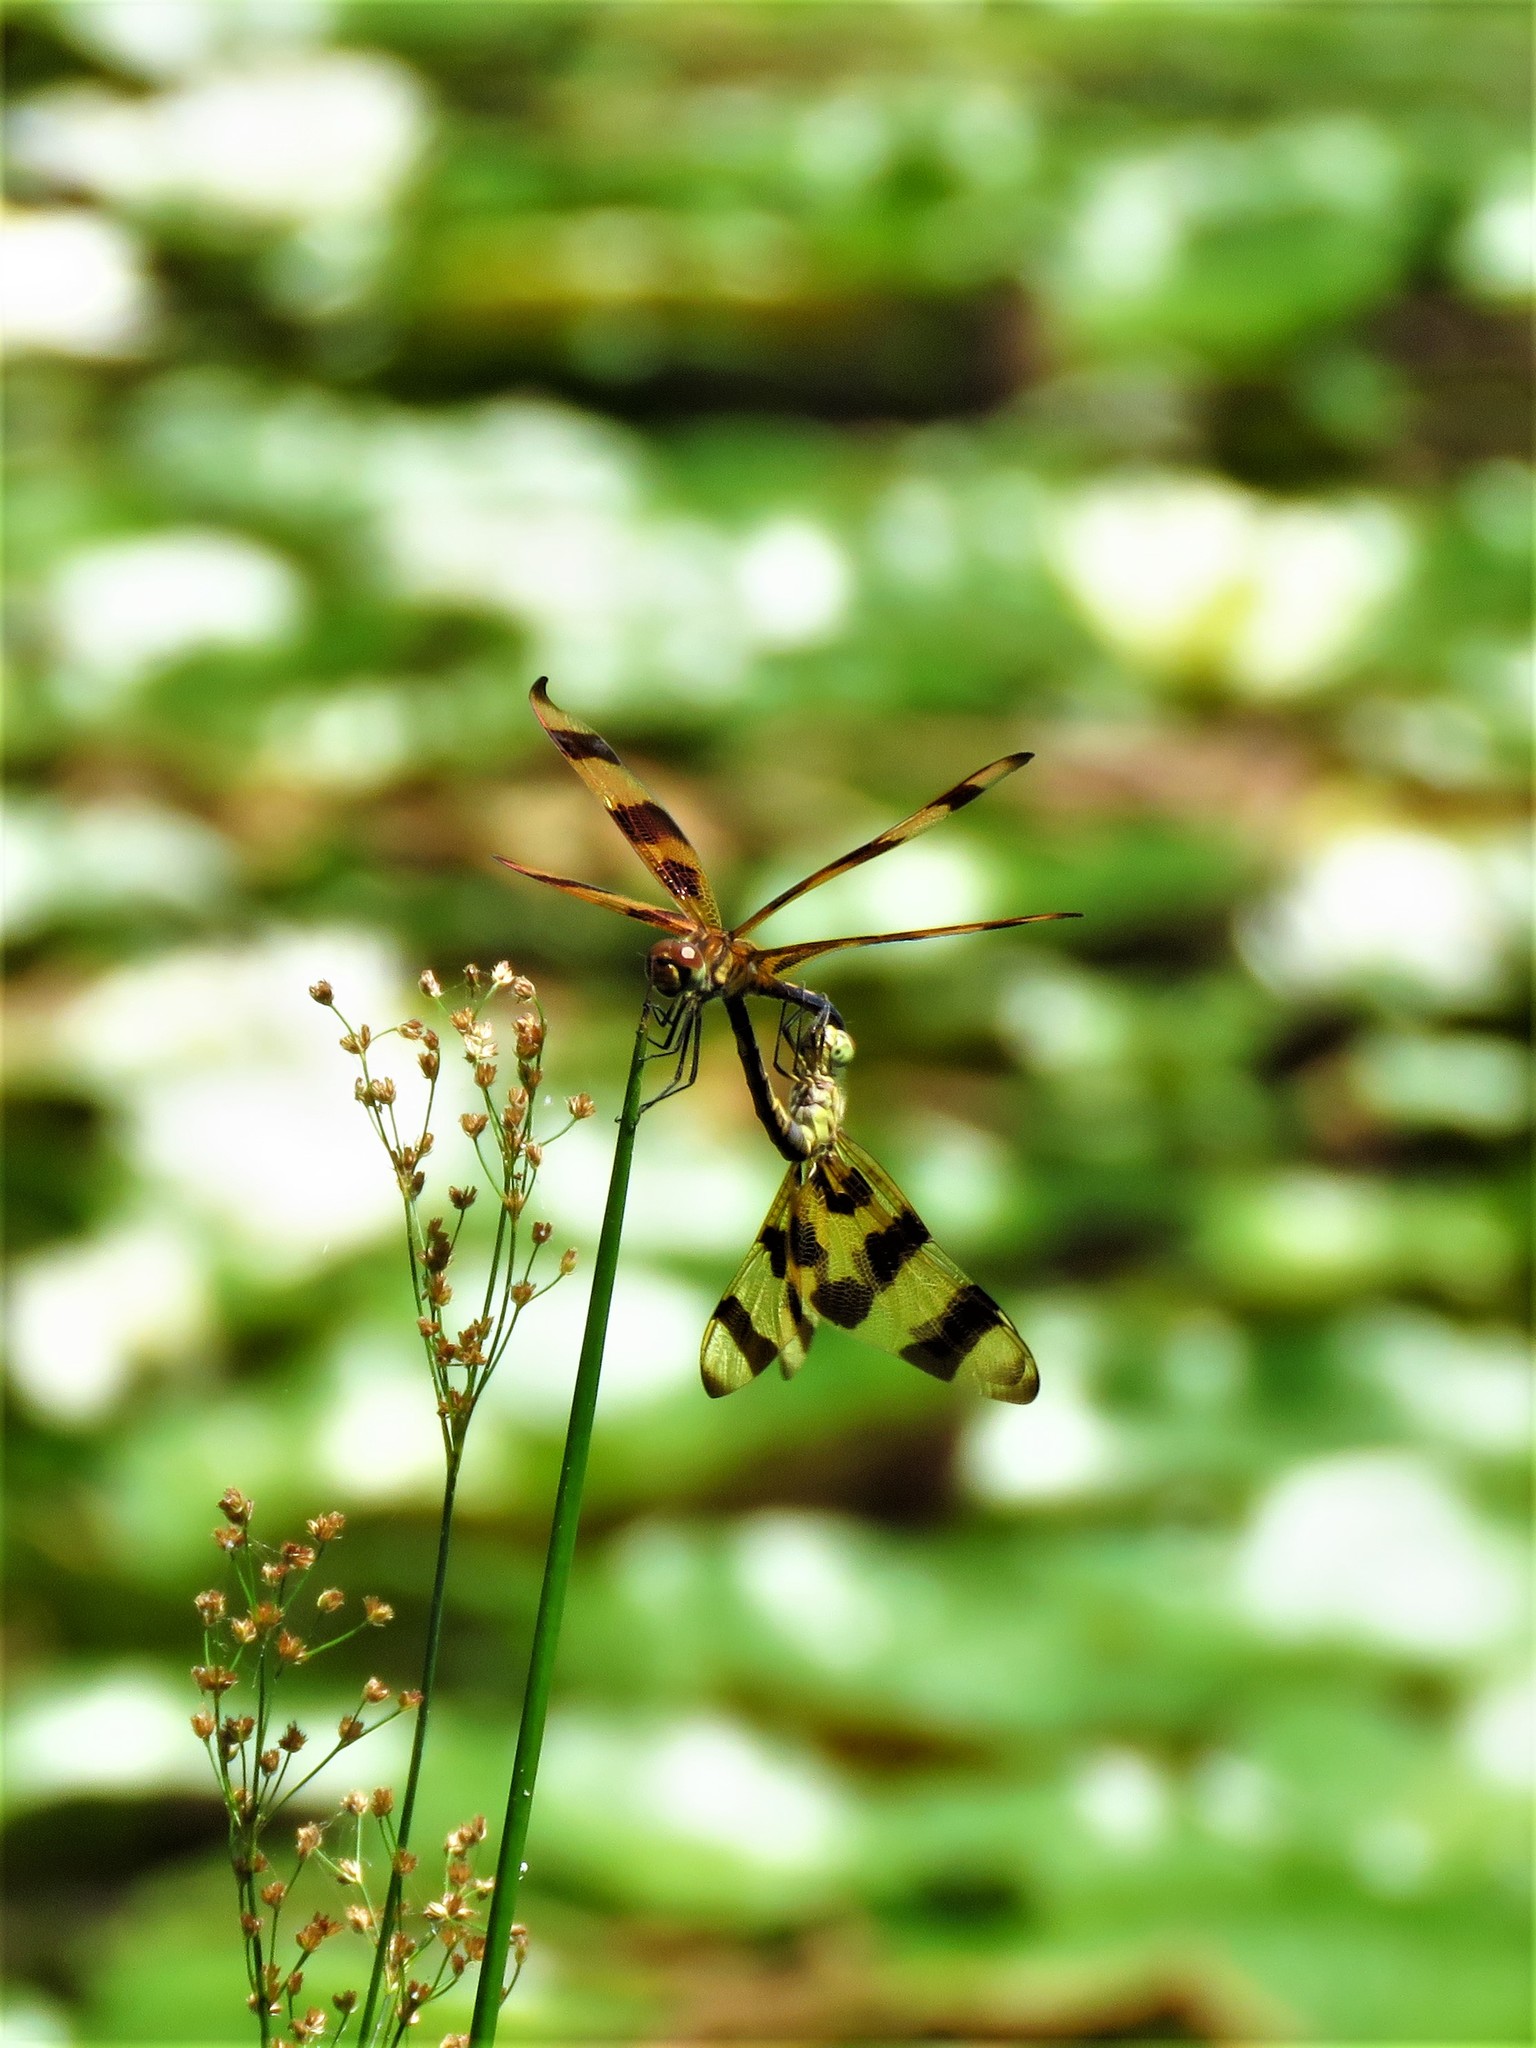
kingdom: Animalia
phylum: Arthropoda
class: Insecta
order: Odonata
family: Libellulidae
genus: Celithemis
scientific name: Celithemis eponina
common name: Halloween pennant
